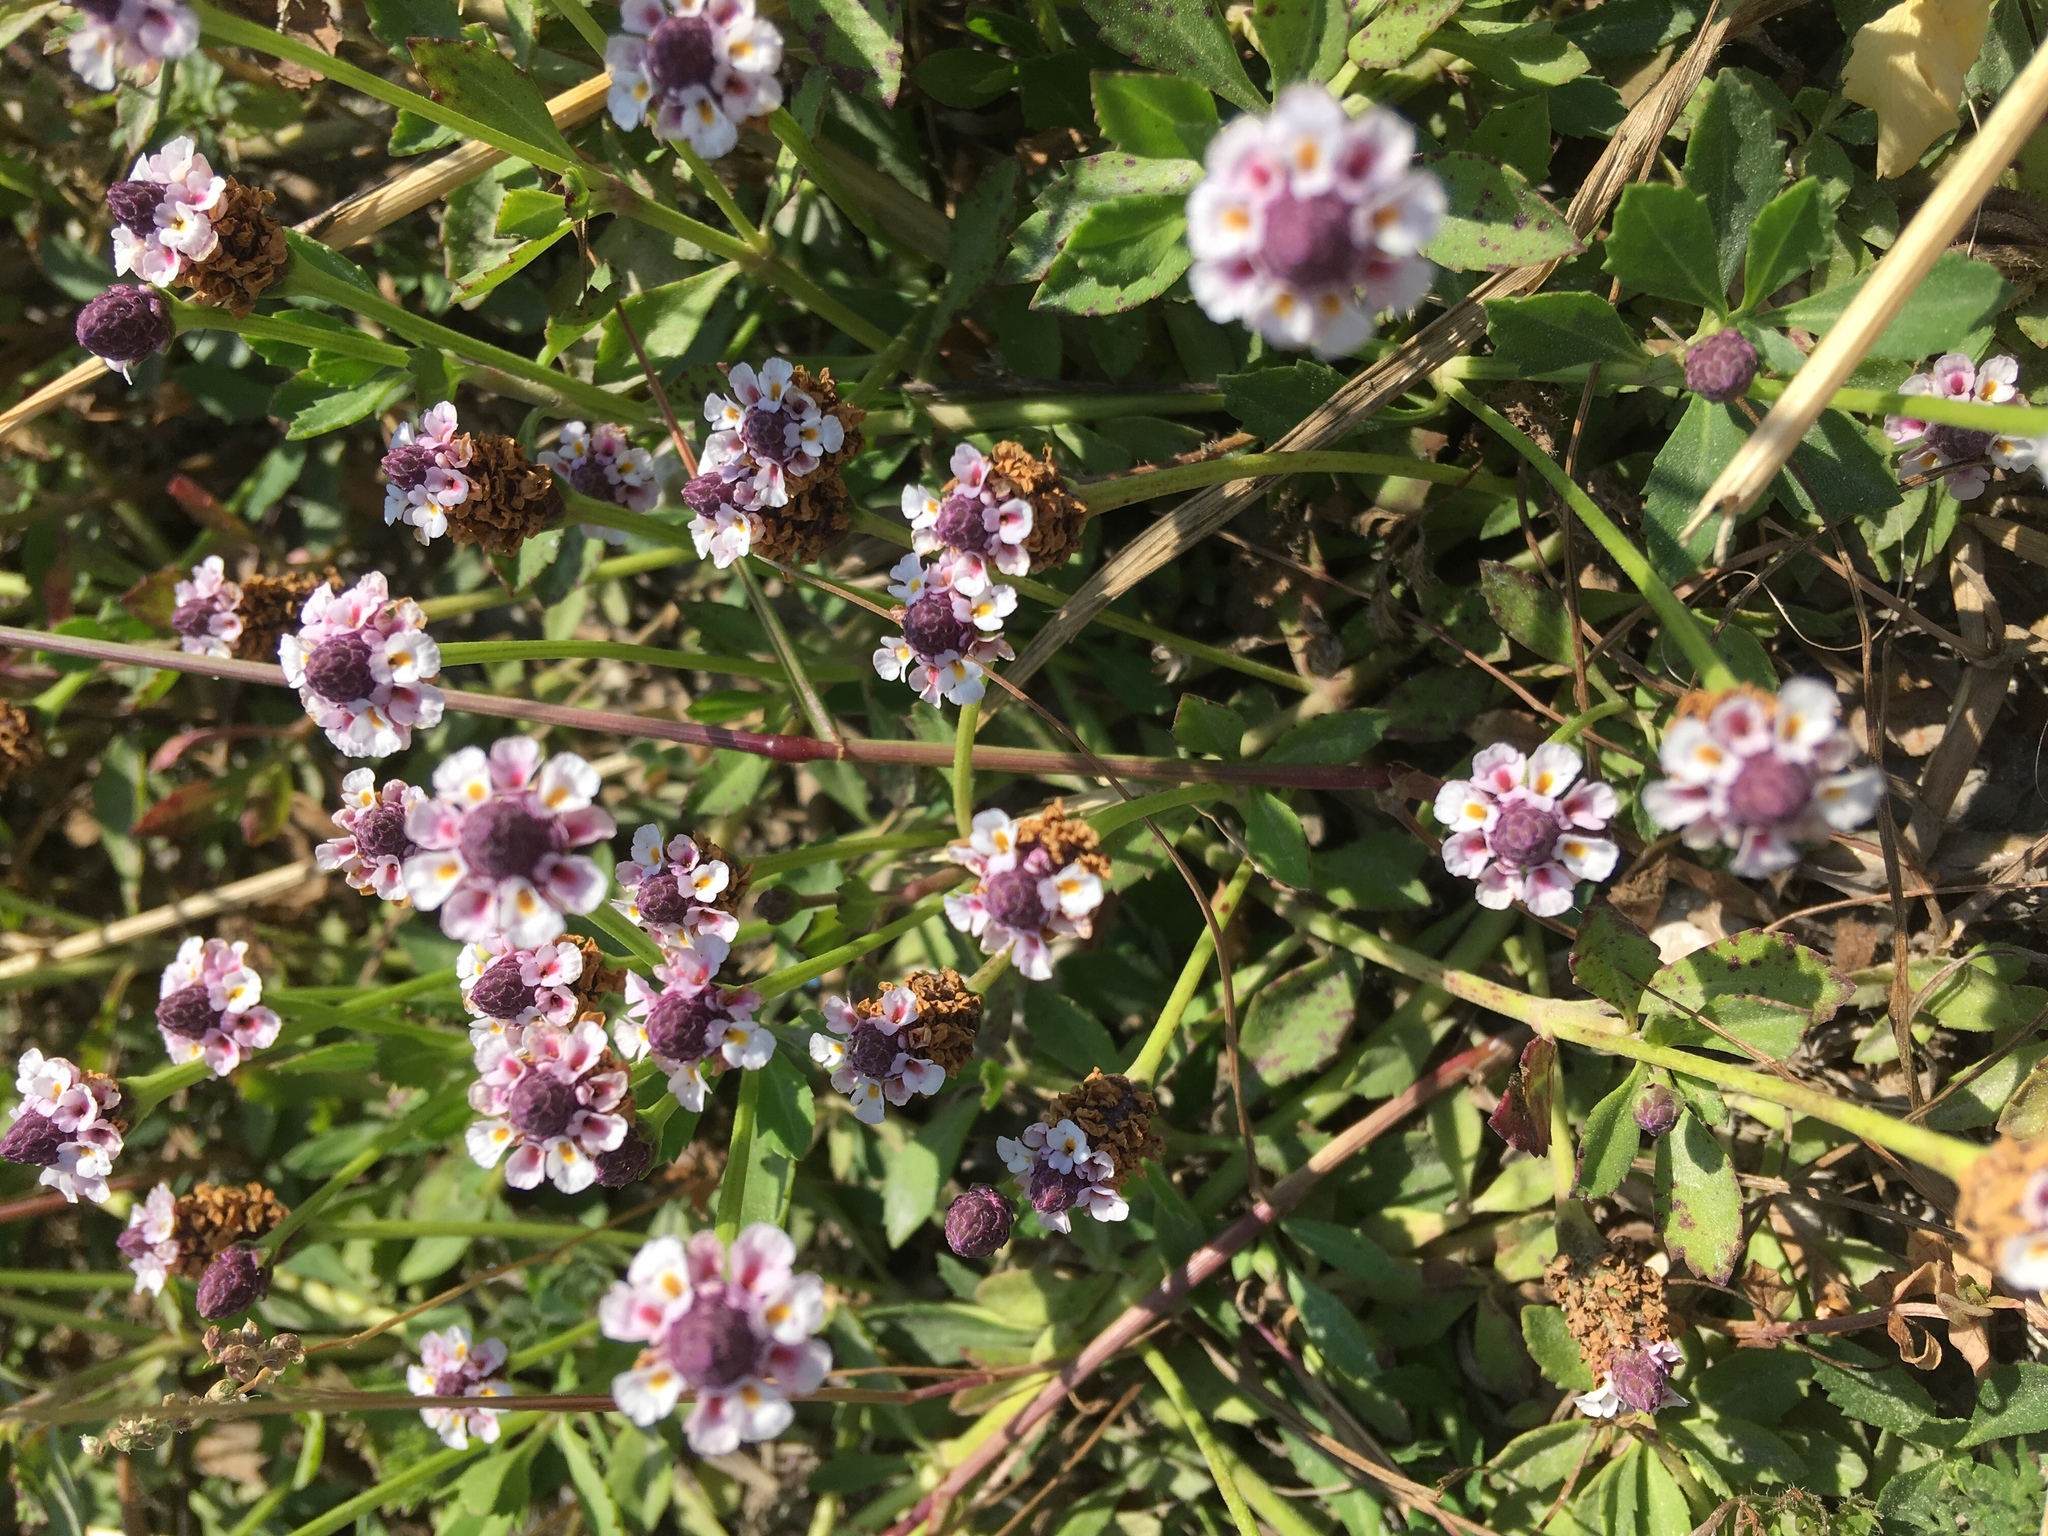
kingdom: Plantae
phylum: Tracheophyta
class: Magnoliopsida
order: Lamiales
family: Verbenaceae
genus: Phyla
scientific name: Phyla nodiflora
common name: Frogfruit
